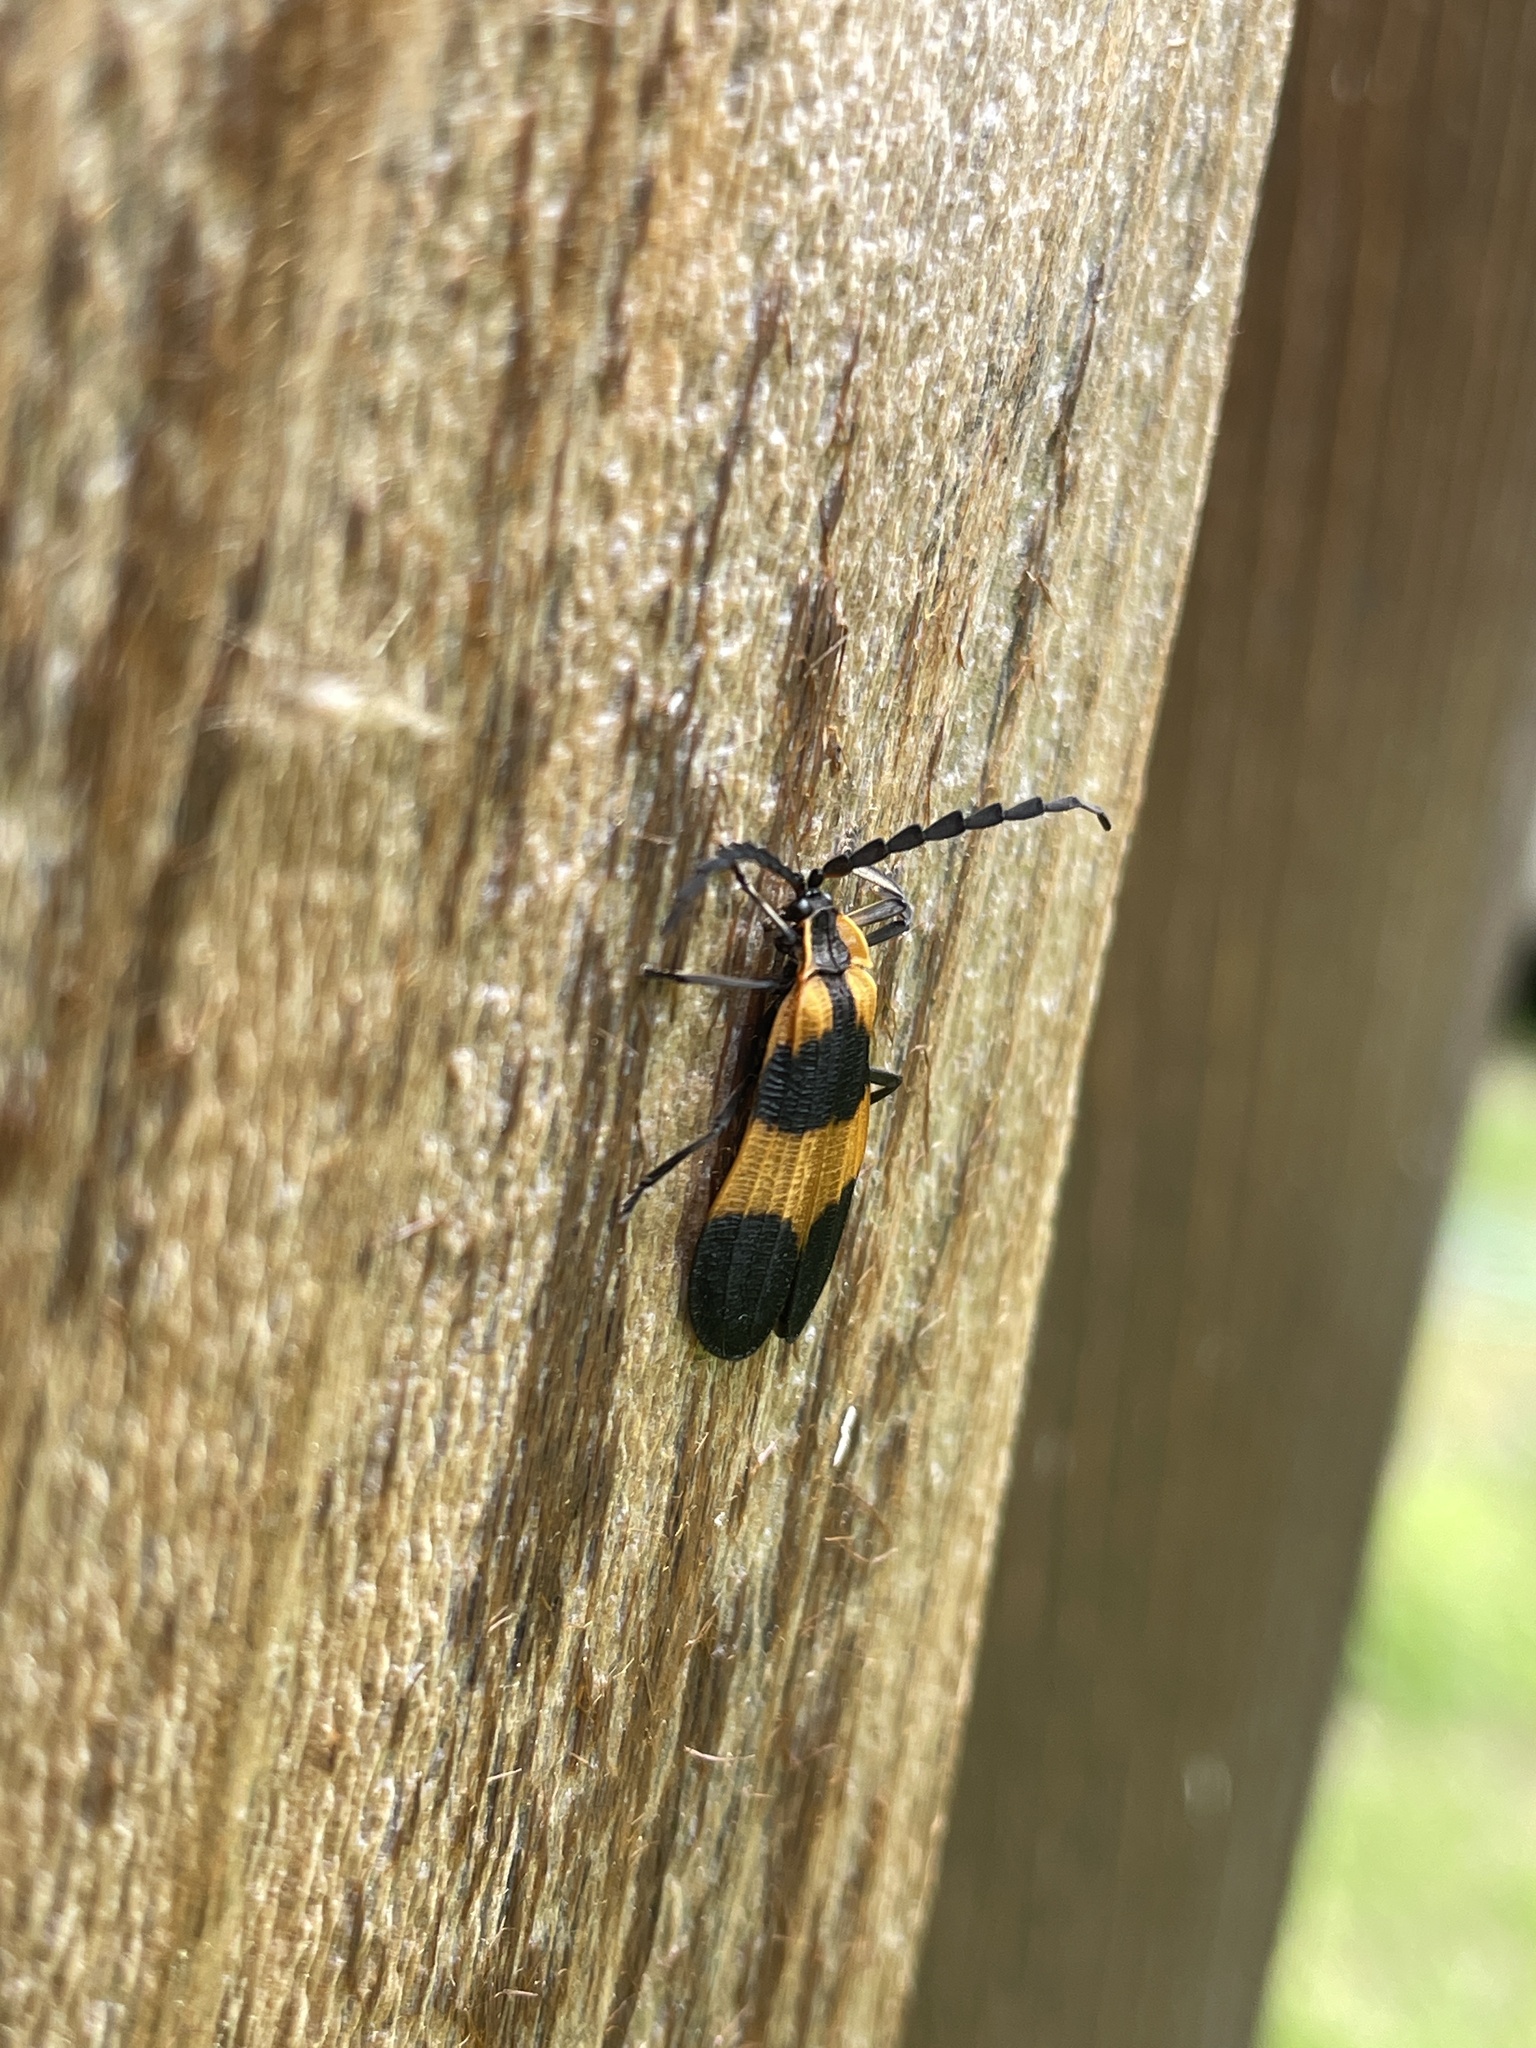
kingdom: Animalia
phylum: Arthropoda
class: Insecta
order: Coleoptera
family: Lycidae
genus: Calopteron
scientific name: Calopteron reticulatum
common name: Banded net-winged beetle
